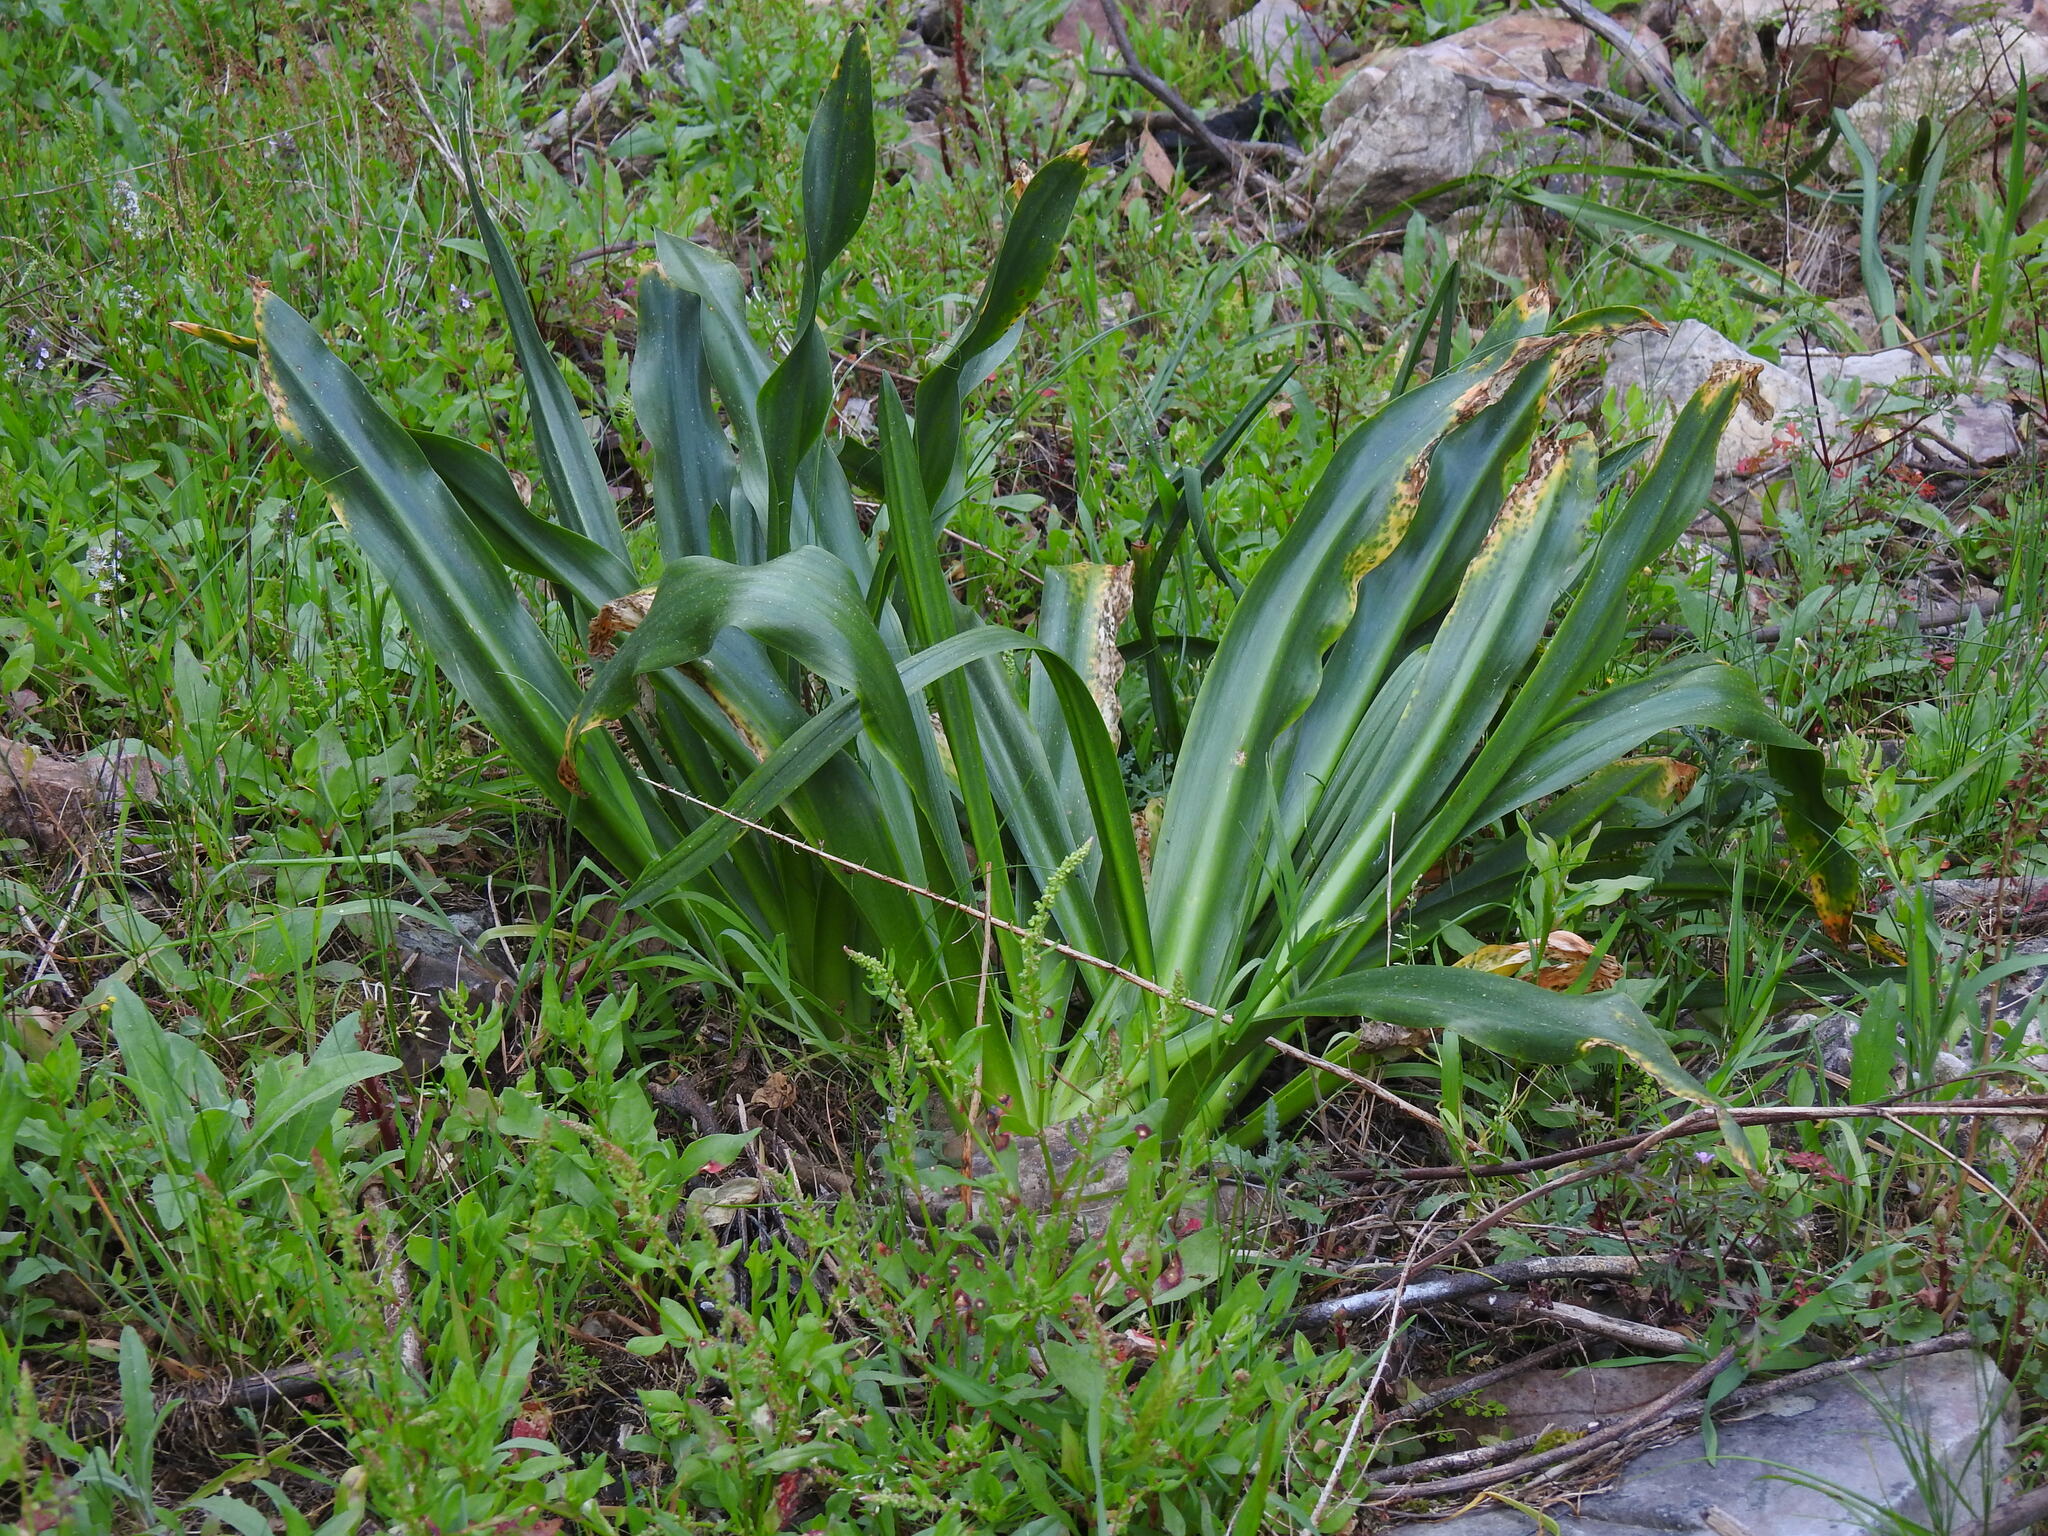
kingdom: Plantae
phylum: Tracheophyta
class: Liliopsida
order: Asparagales
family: Asparagaceae
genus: Drimia
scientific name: Drimia maritima
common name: Maritime squill
